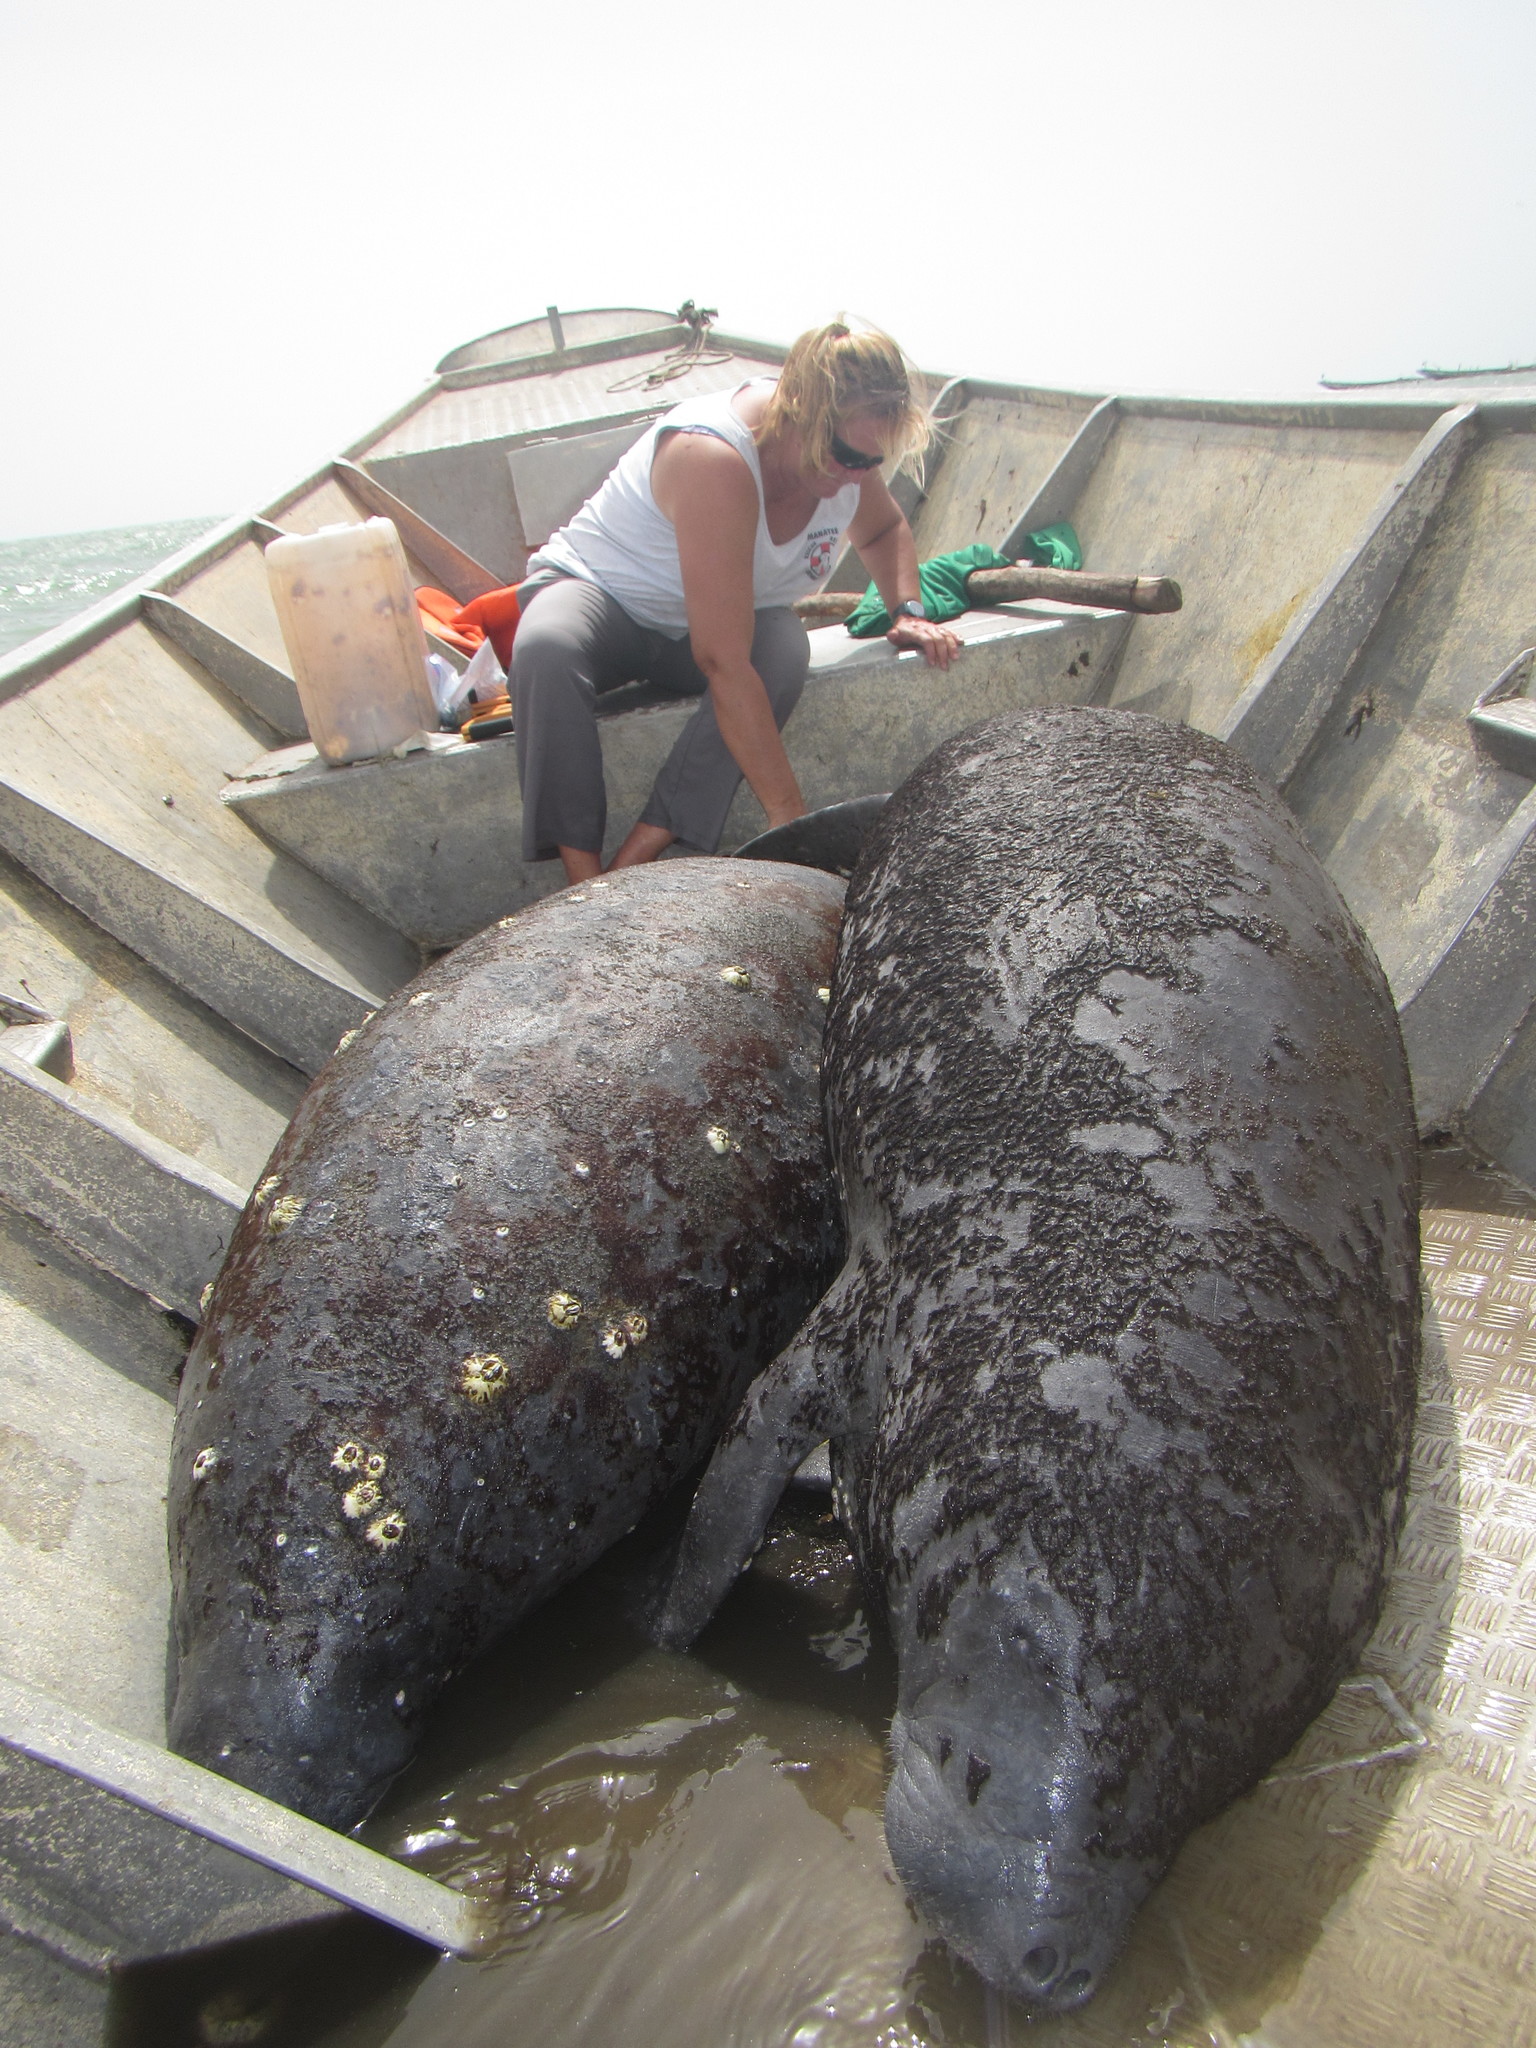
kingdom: Animalia
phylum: Chordata
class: Mammalia
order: Sirenia
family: Trichechidae
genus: Trichechus
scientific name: Trichechus senegalensis
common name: West african manatee
